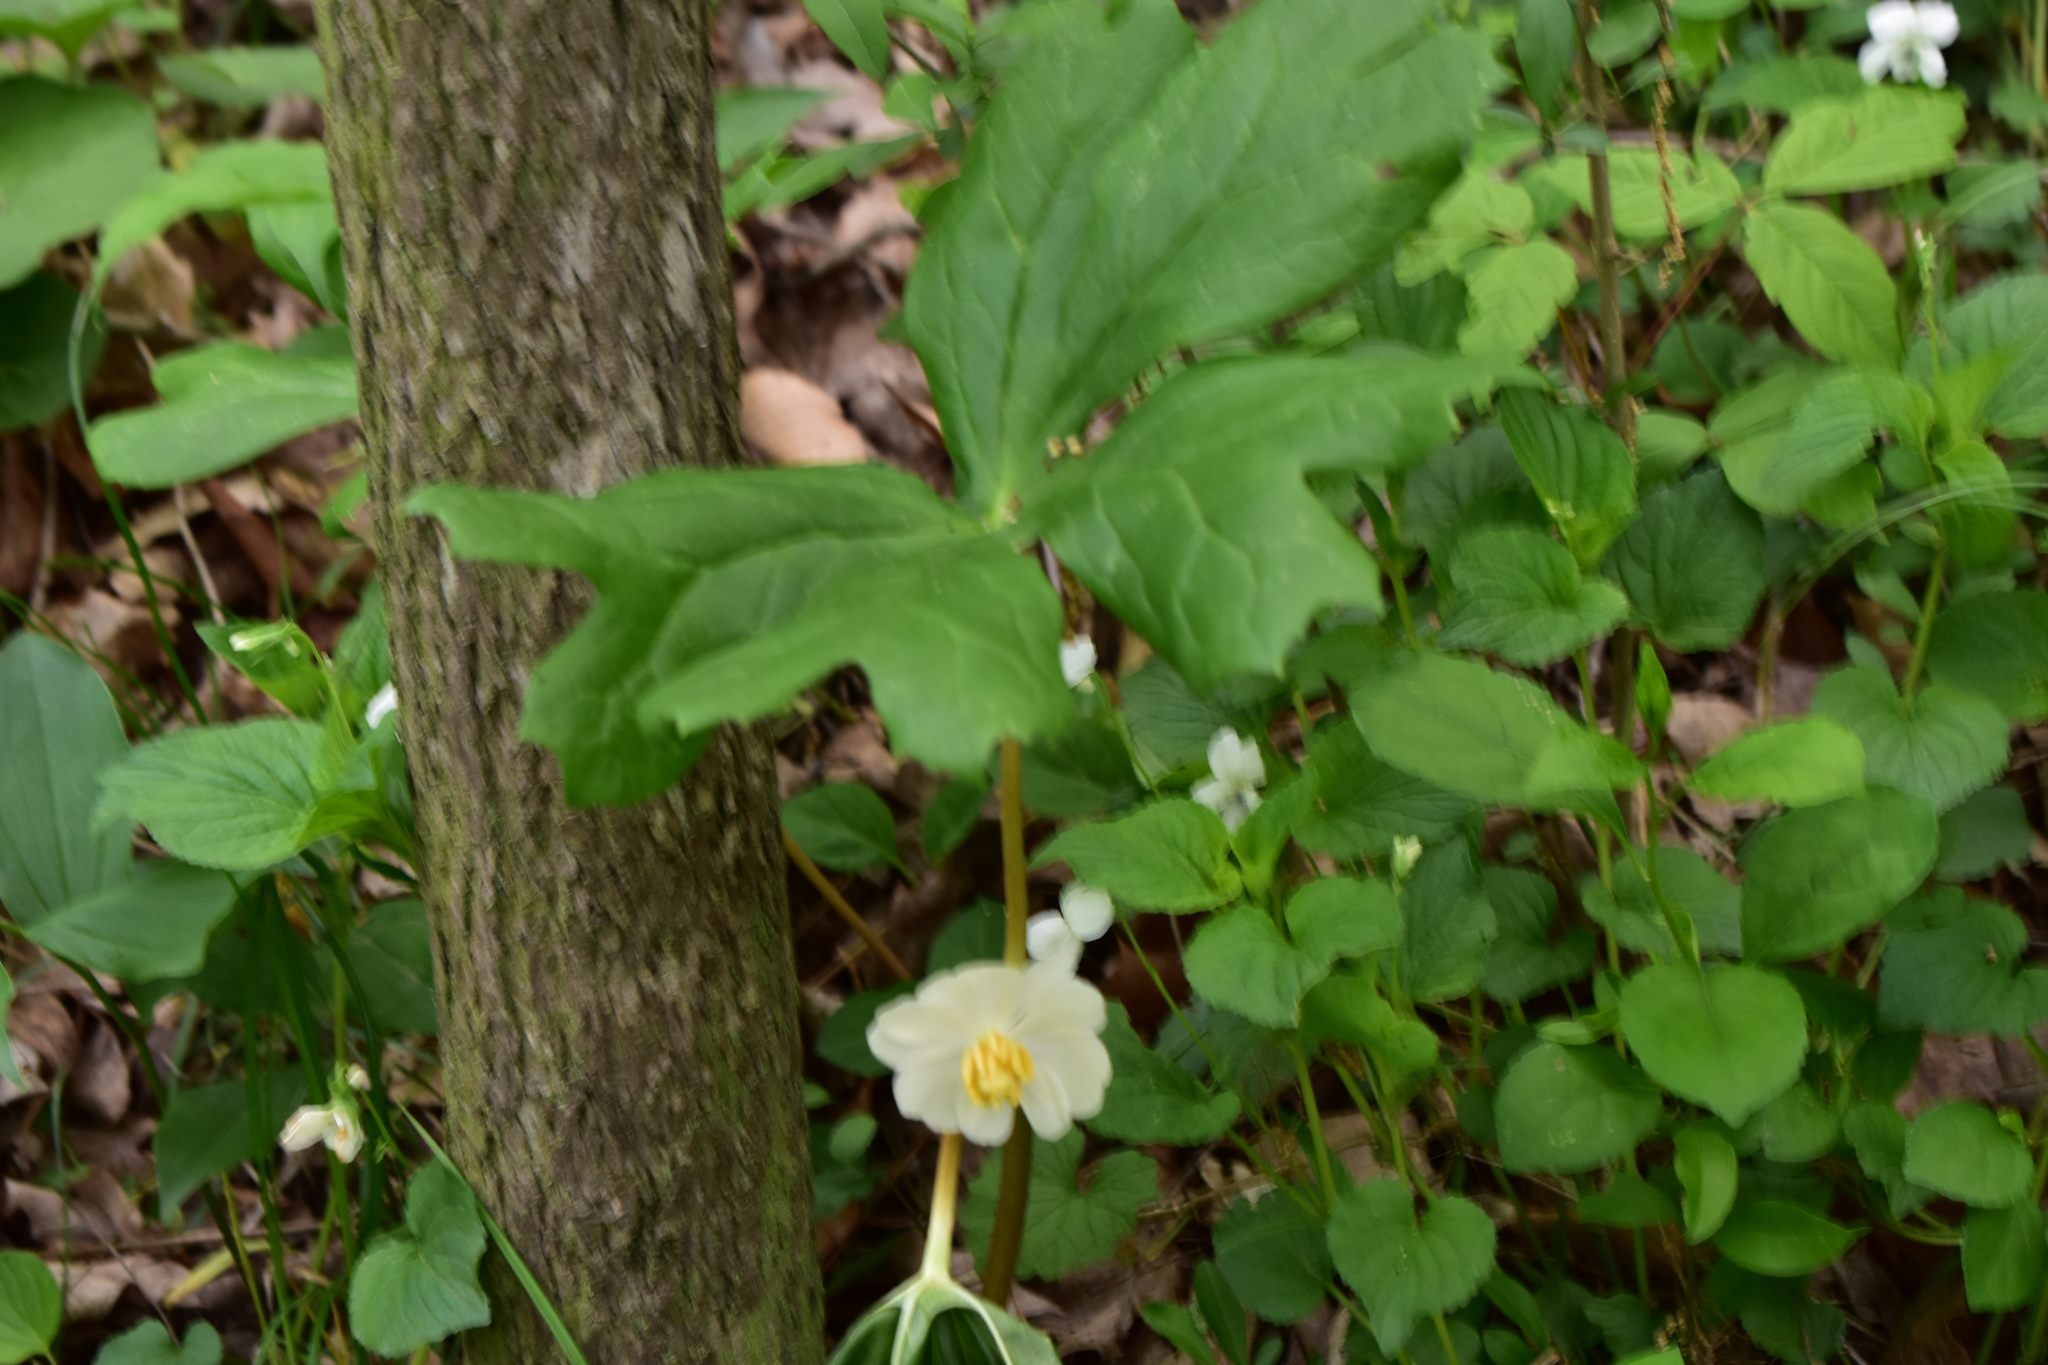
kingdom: Plantae
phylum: Tracheophyta
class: Magnoliopsida
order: Ranunculales
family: Berberidaceae
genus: Podophyllum
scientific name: Podophyllum peltatum
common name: Wild mandrake
